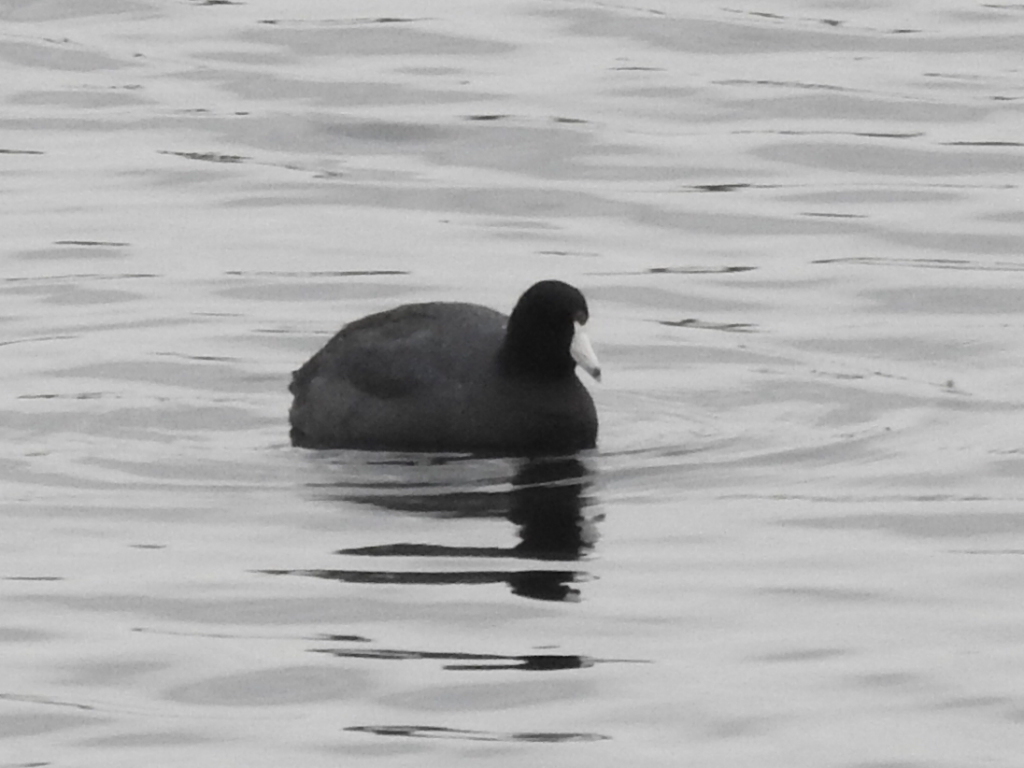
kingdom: Animalia
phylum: Chordata
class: Aves
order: Gruiformes
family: Rallidae
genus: Fulica
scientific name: Fulica americana
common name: American coot
